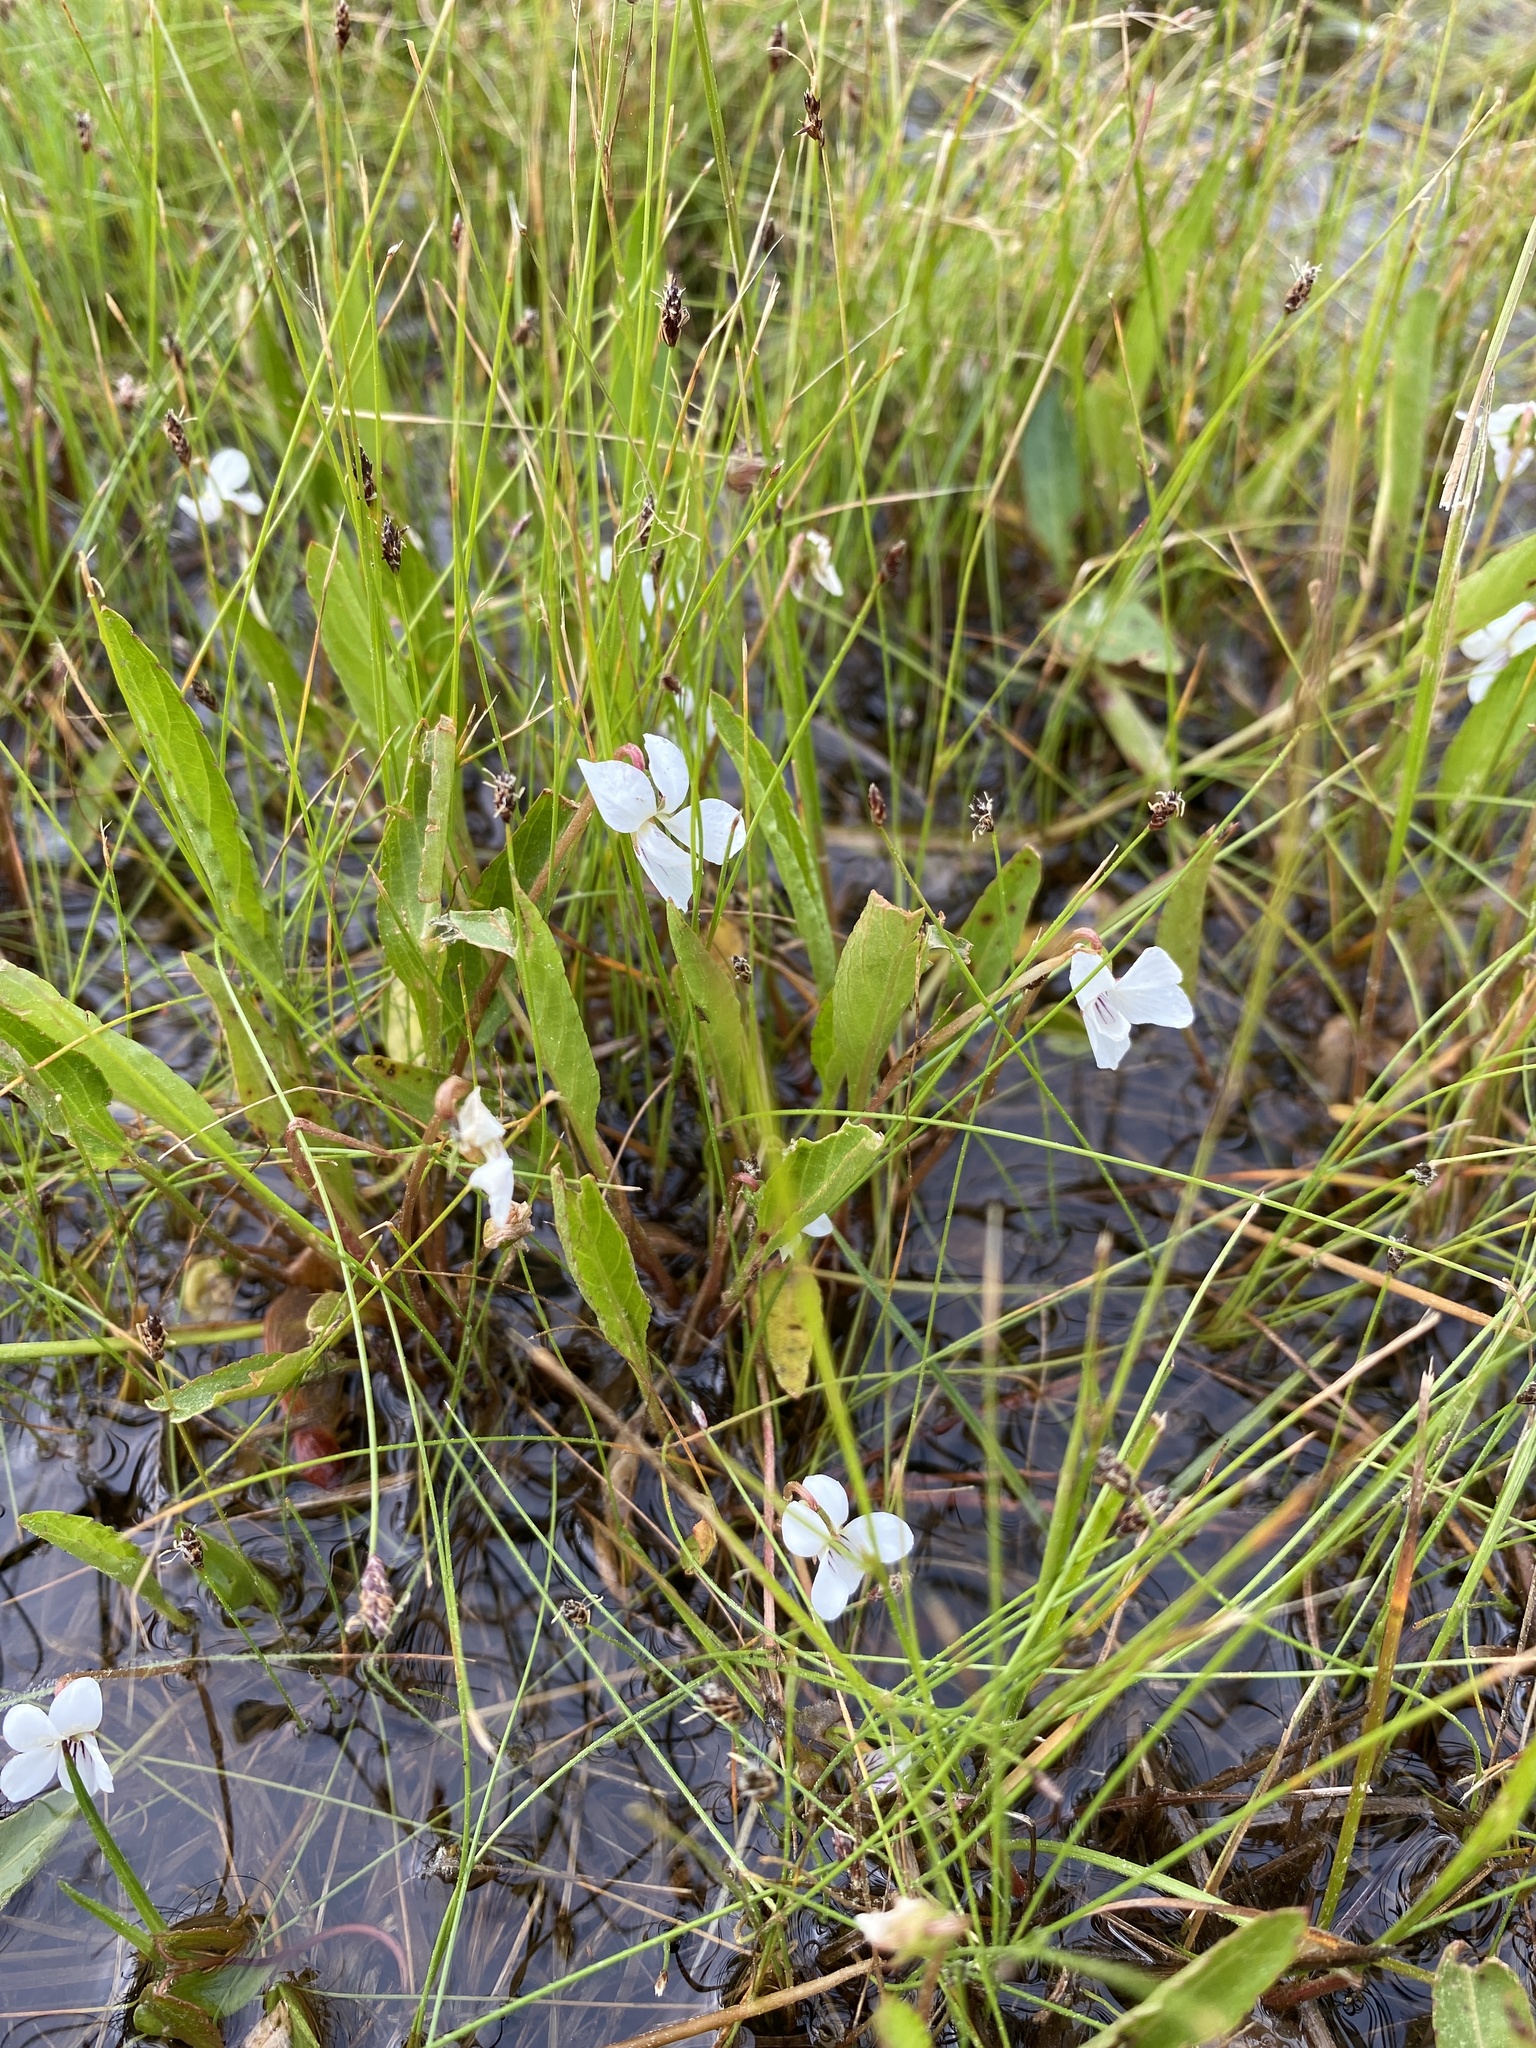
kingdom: Plantae
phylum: Tracheophyta
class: Magnoliopsida
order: Malpighiales
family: Violaceae
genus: Viola
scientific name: Viola lanceolata
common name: Bog white violet
